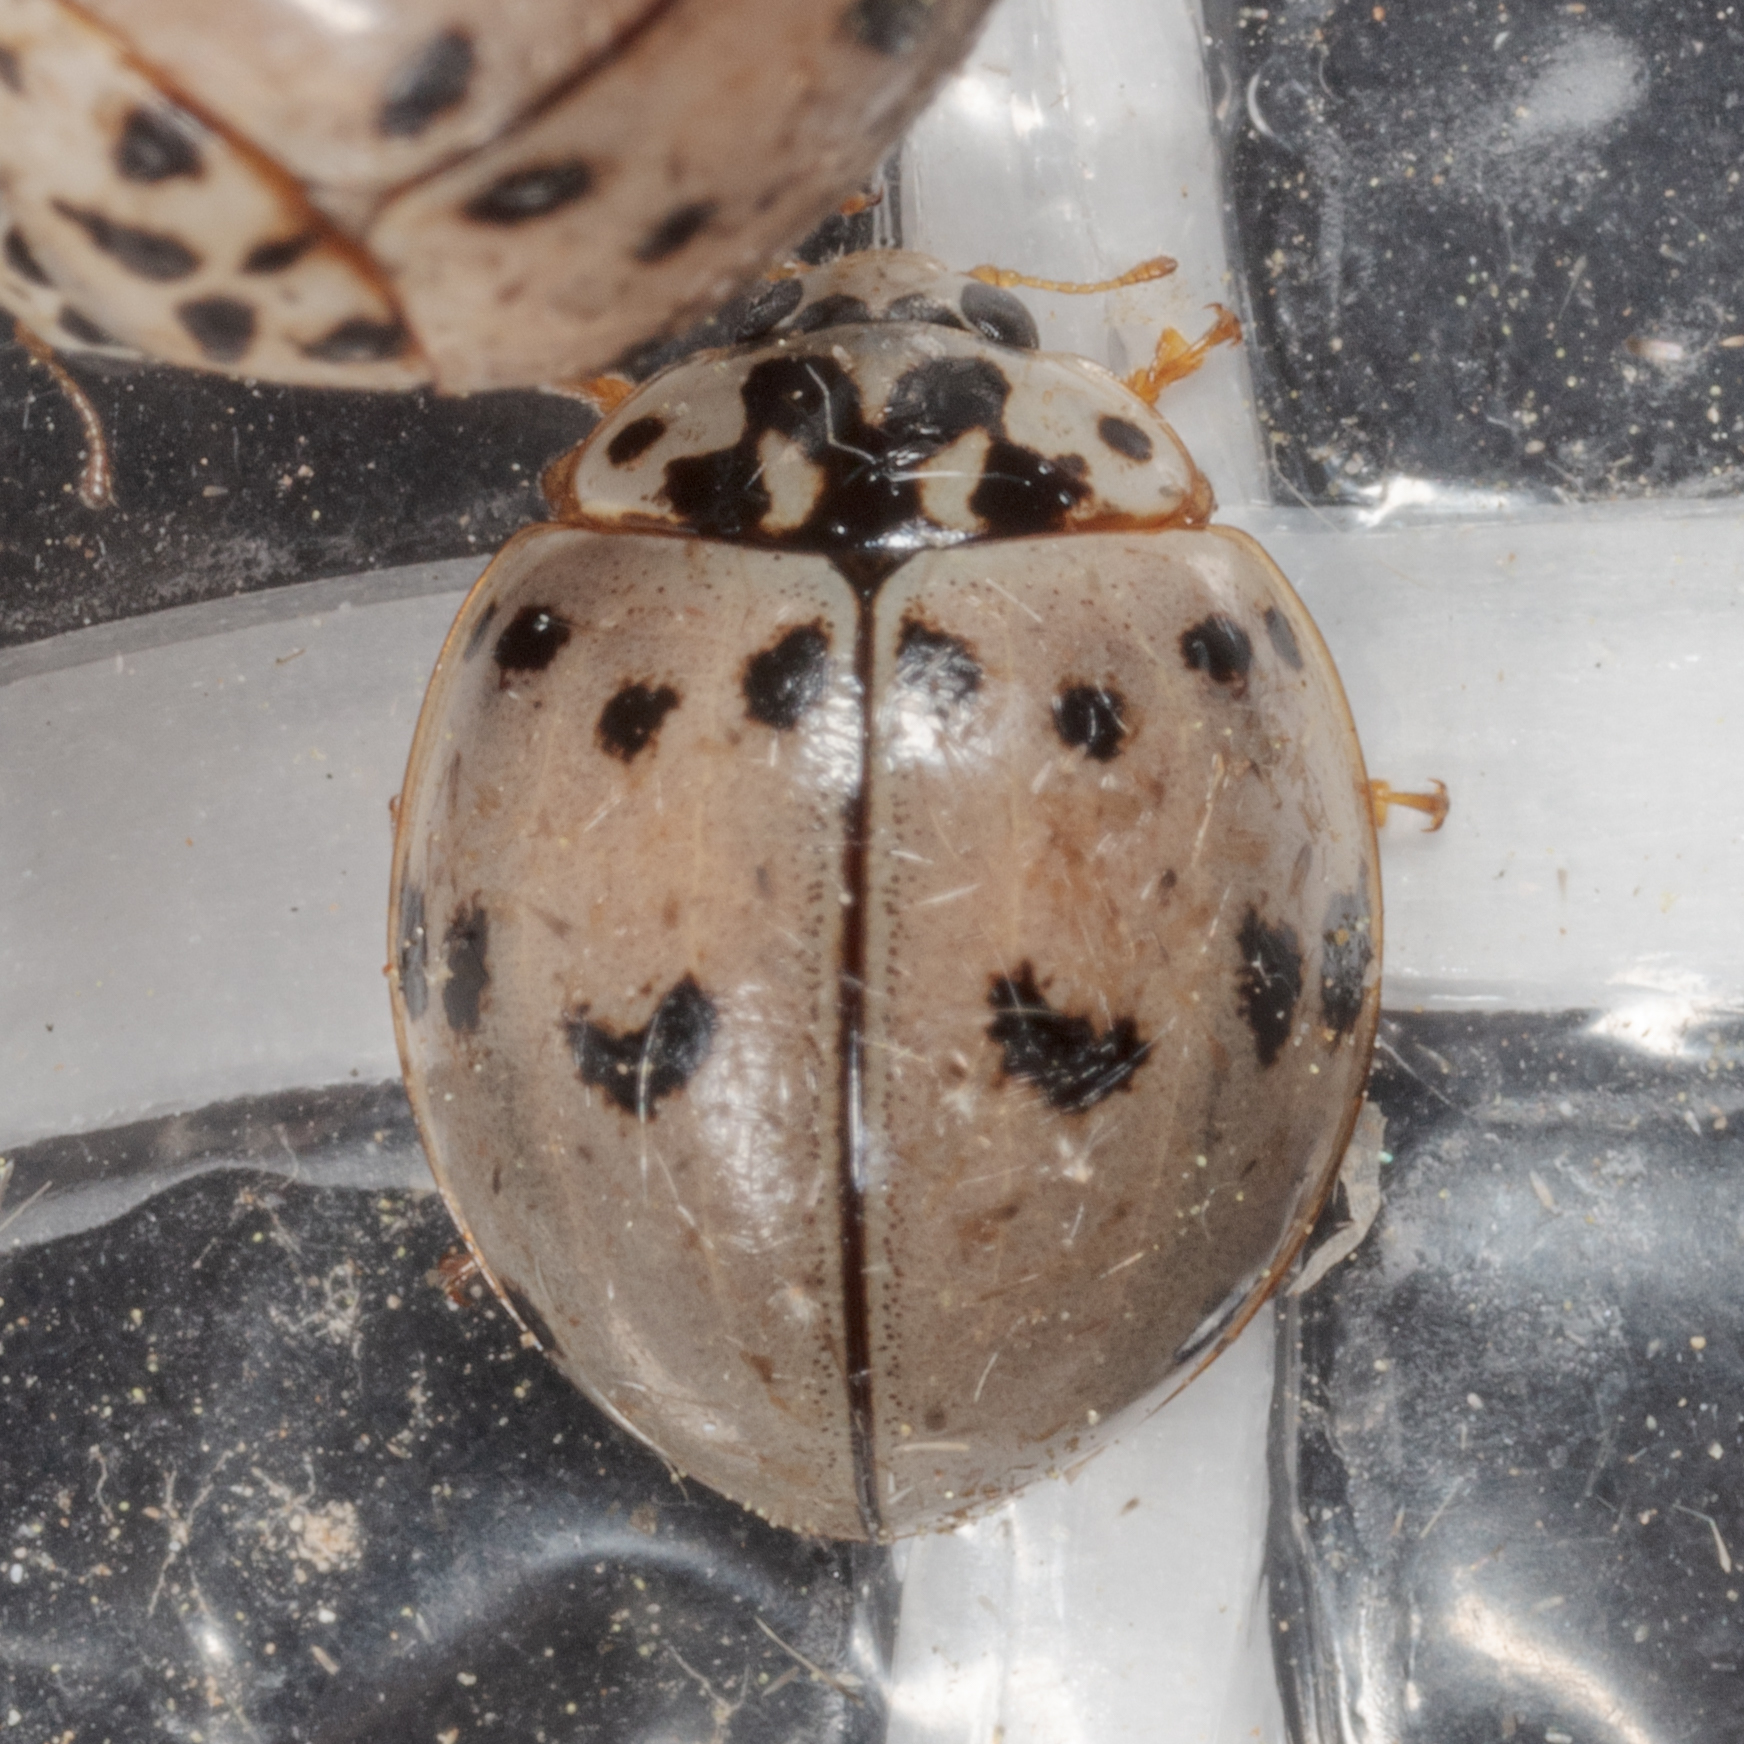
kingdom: Animalia
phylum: Arthropoda
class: Insecta
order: Coleoptera
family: Coccinellidae
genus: Olla
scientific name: Olla v-nigrum
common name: Ashy gray lady beetle
